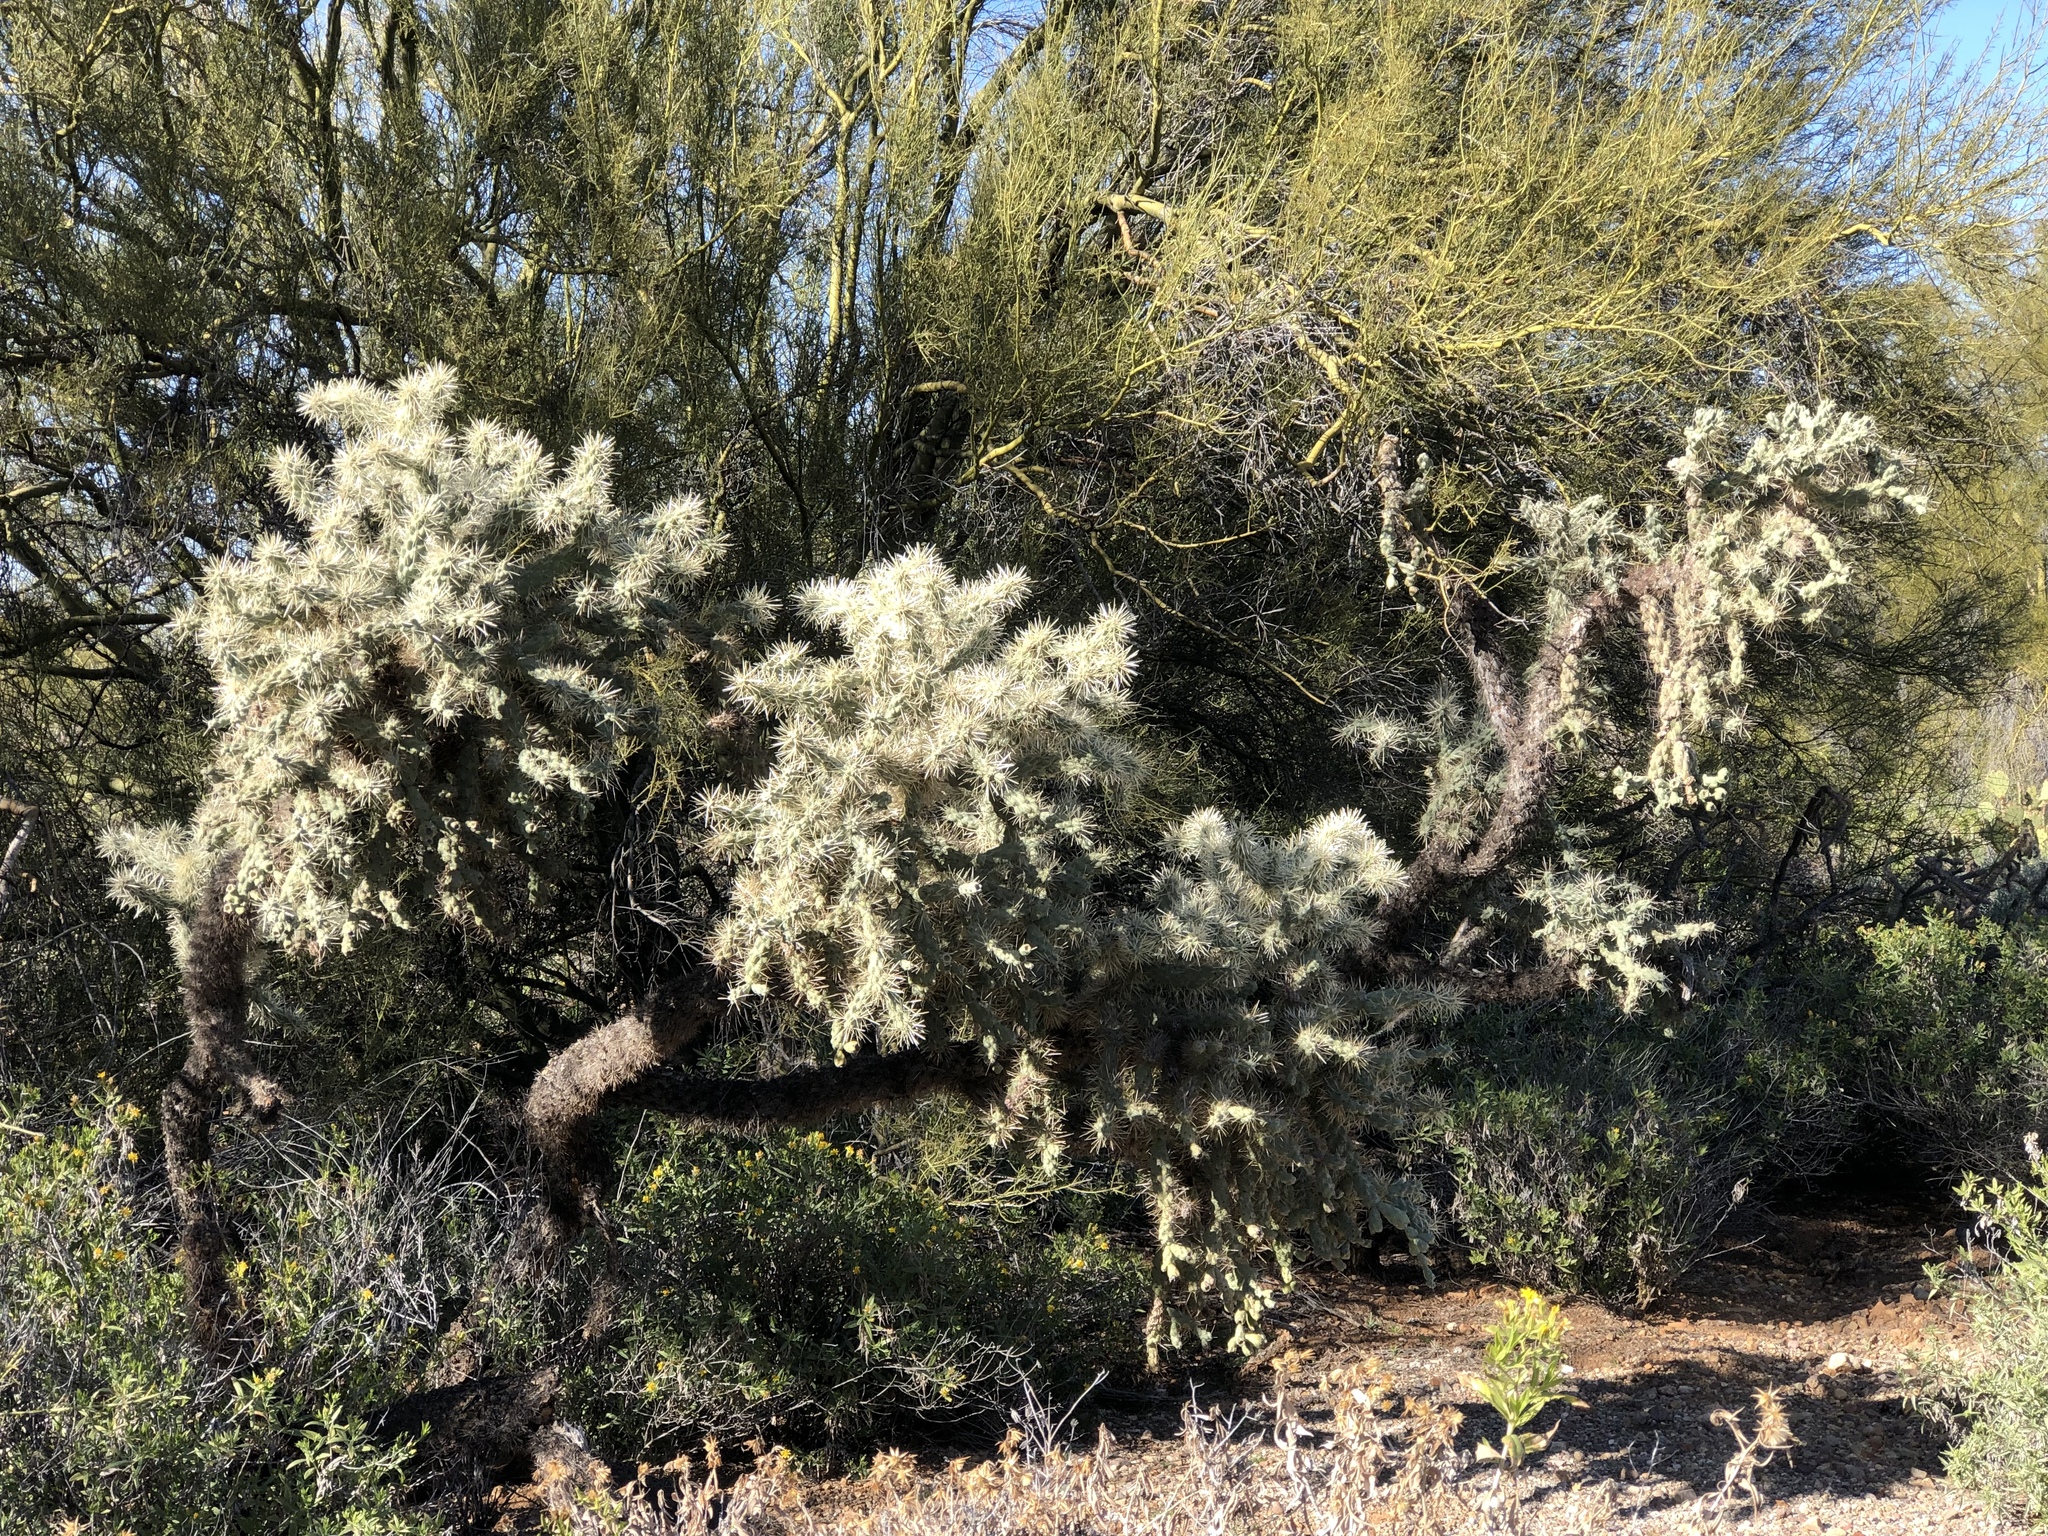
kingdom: Plantae
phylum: Tracheophyta
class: Magnoliopsida
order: Caryophyllales
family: Cactaceae
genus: Cylindropuntia
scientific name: Cylindropuntia fulgida
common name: Jumping cholla
